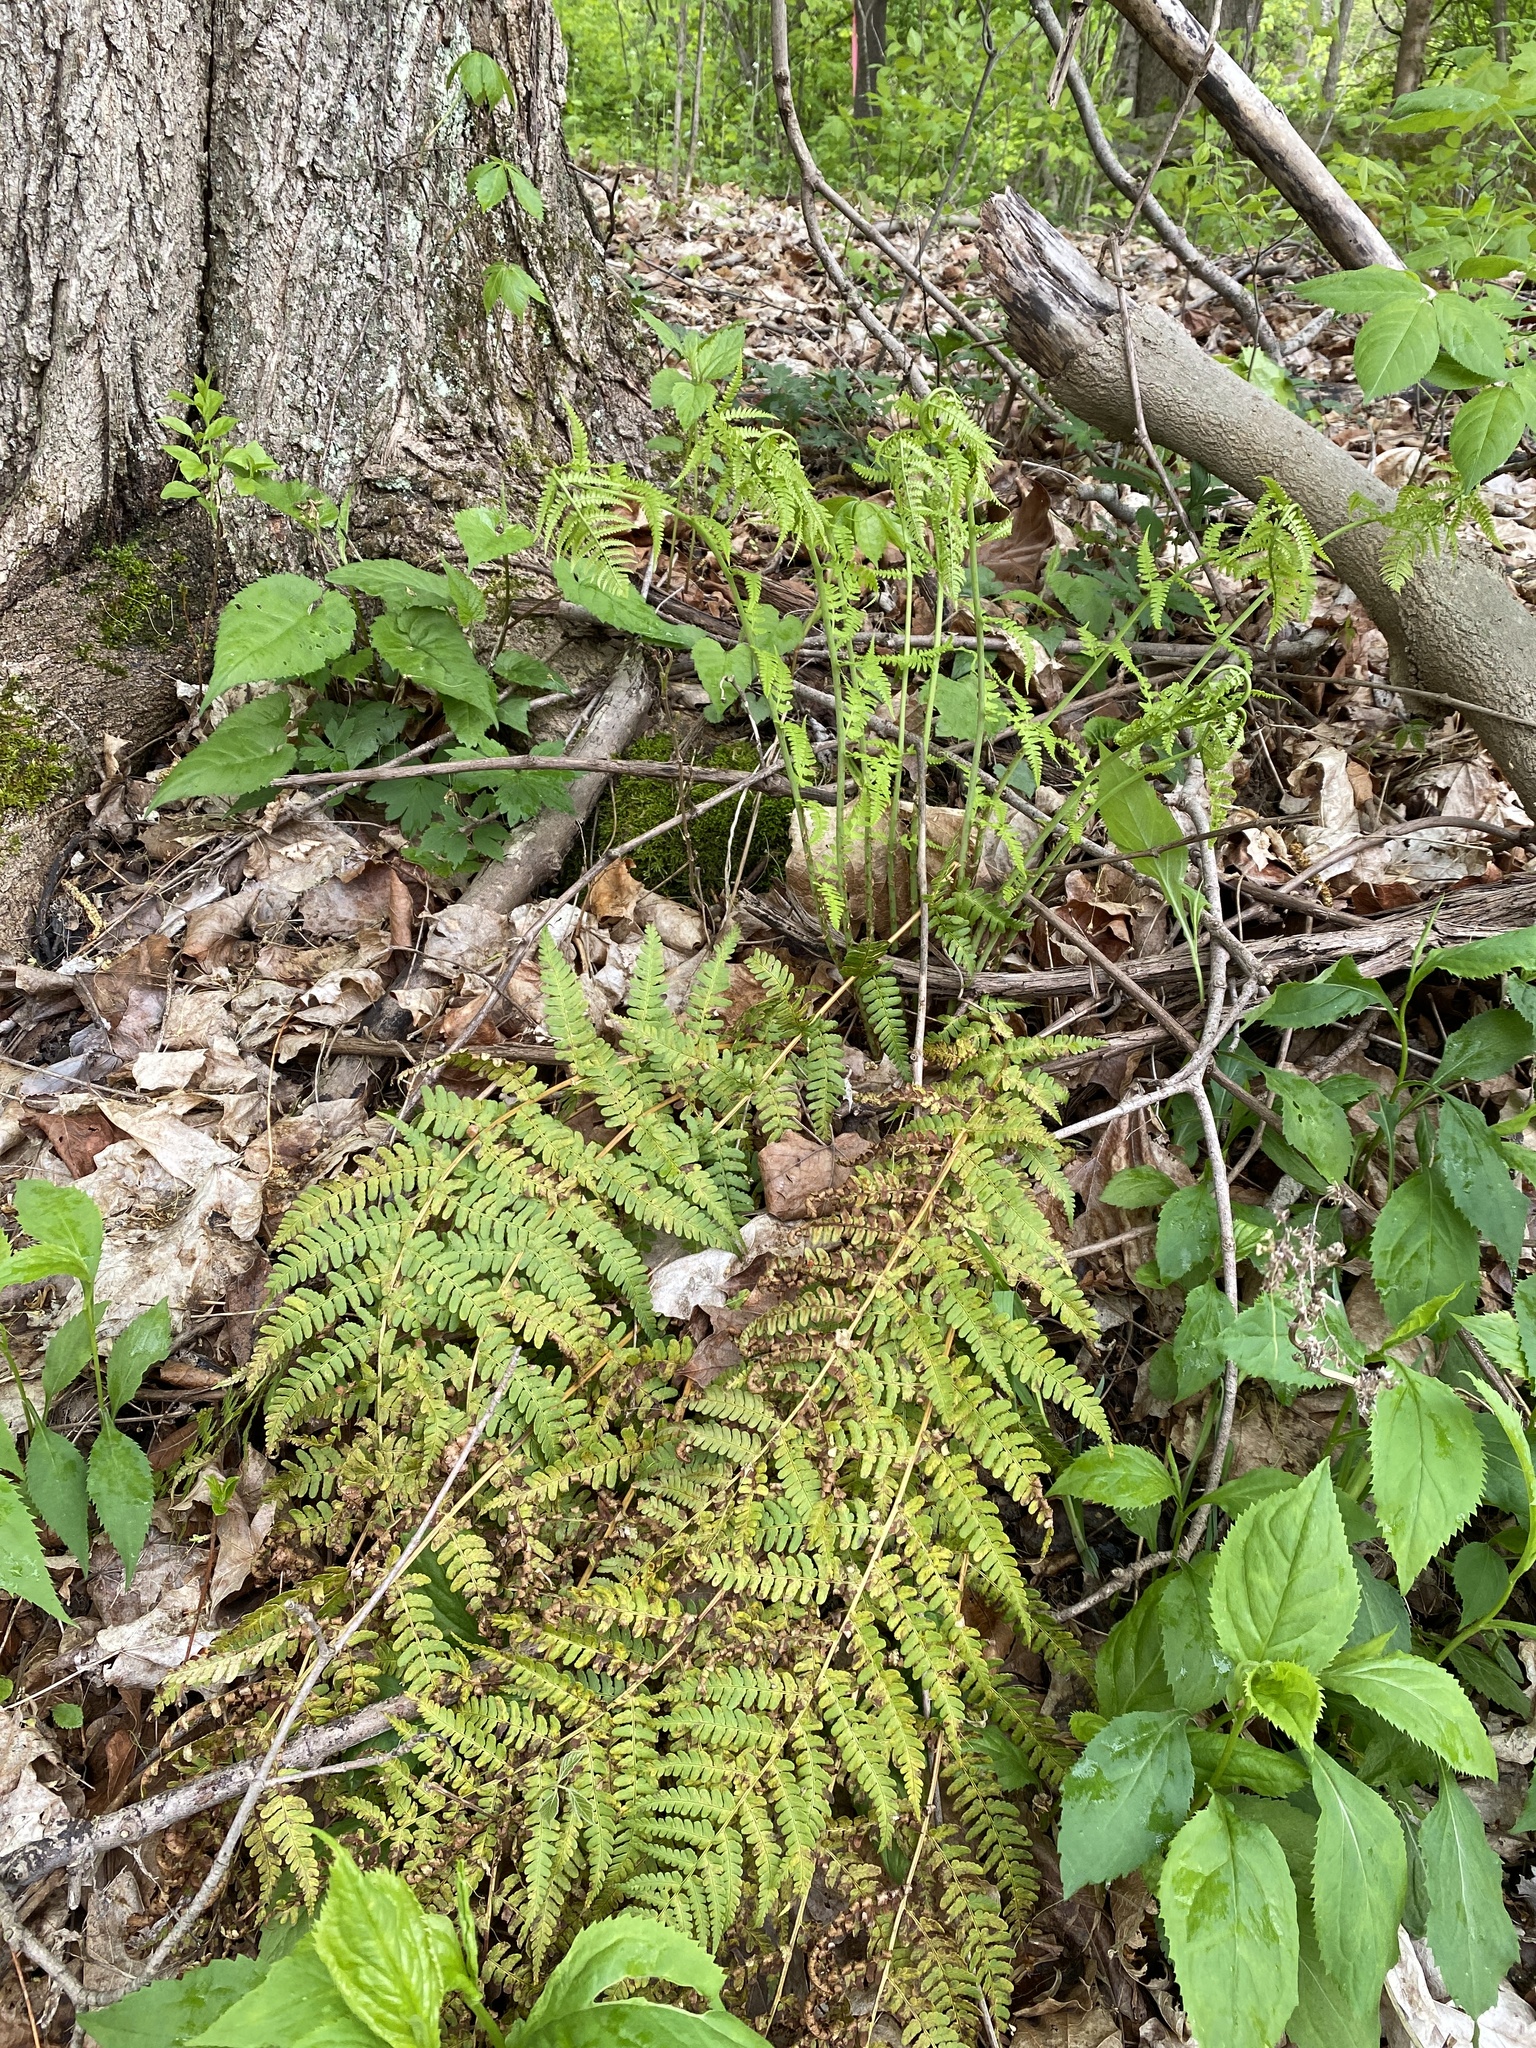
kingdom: Plantae
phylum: Tracheophyta
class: Polypodiopsida
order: Polypodiales
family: Dryopteridaceae
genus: Dryopteris
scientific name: Dryopteris marginalis
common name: Marginal wood fern
